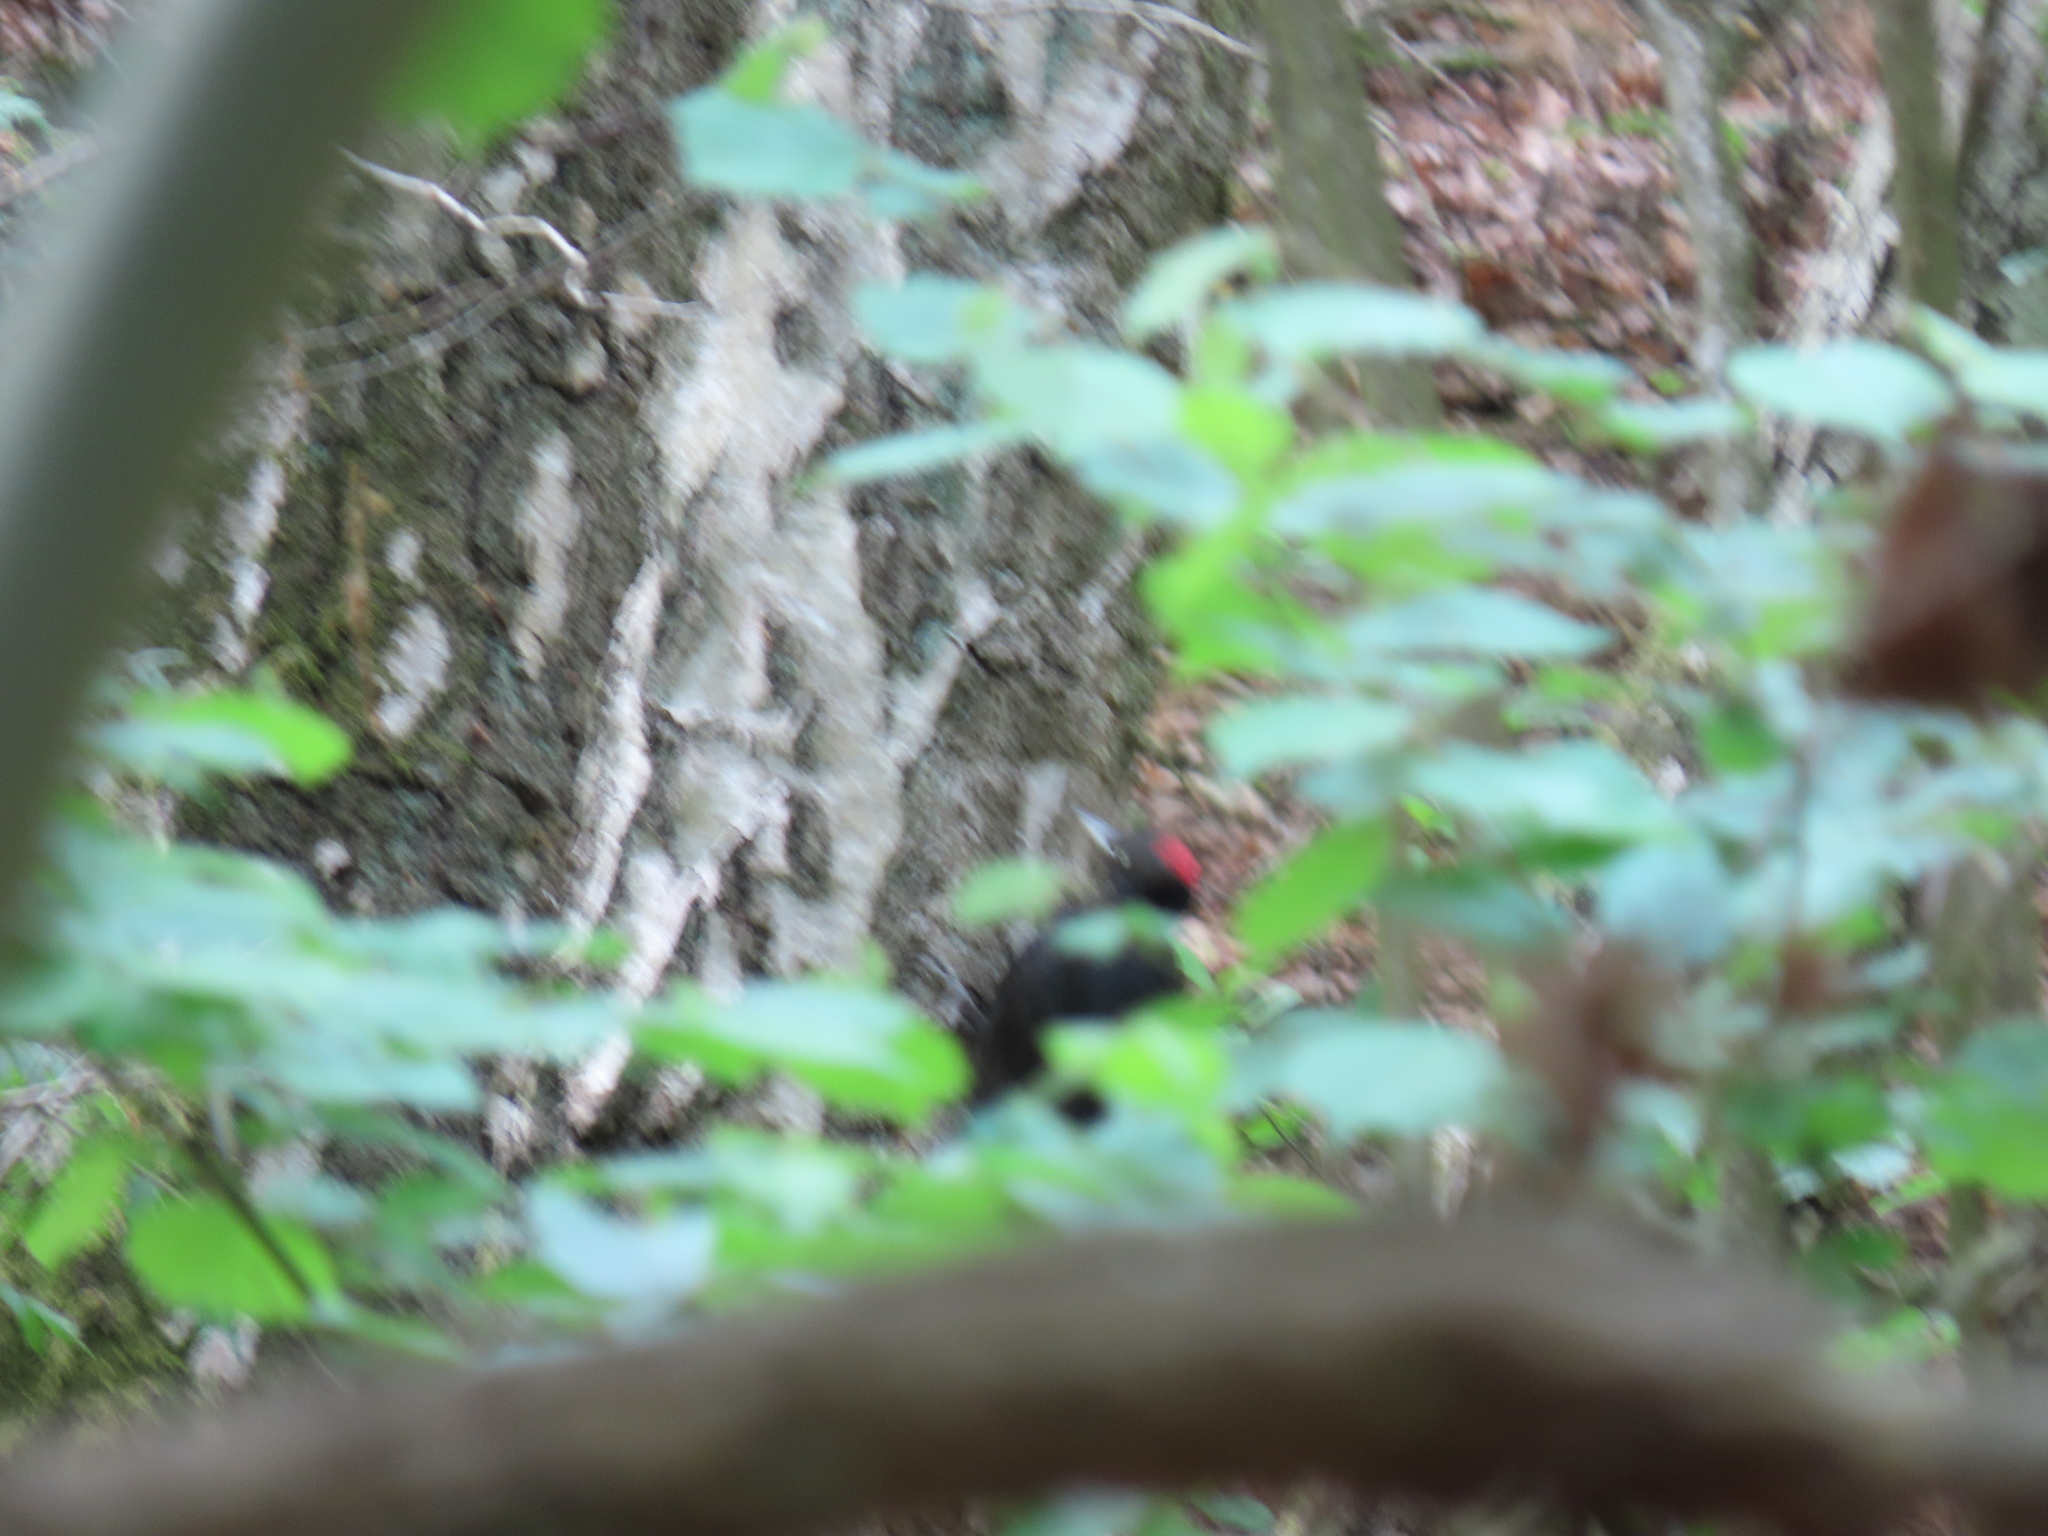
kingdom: Animalia
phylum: Chordata
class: Aves
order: Piciformes
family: Picidae
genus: Dryocopus
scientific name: Dryocopus martius
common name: Black woodpecker
